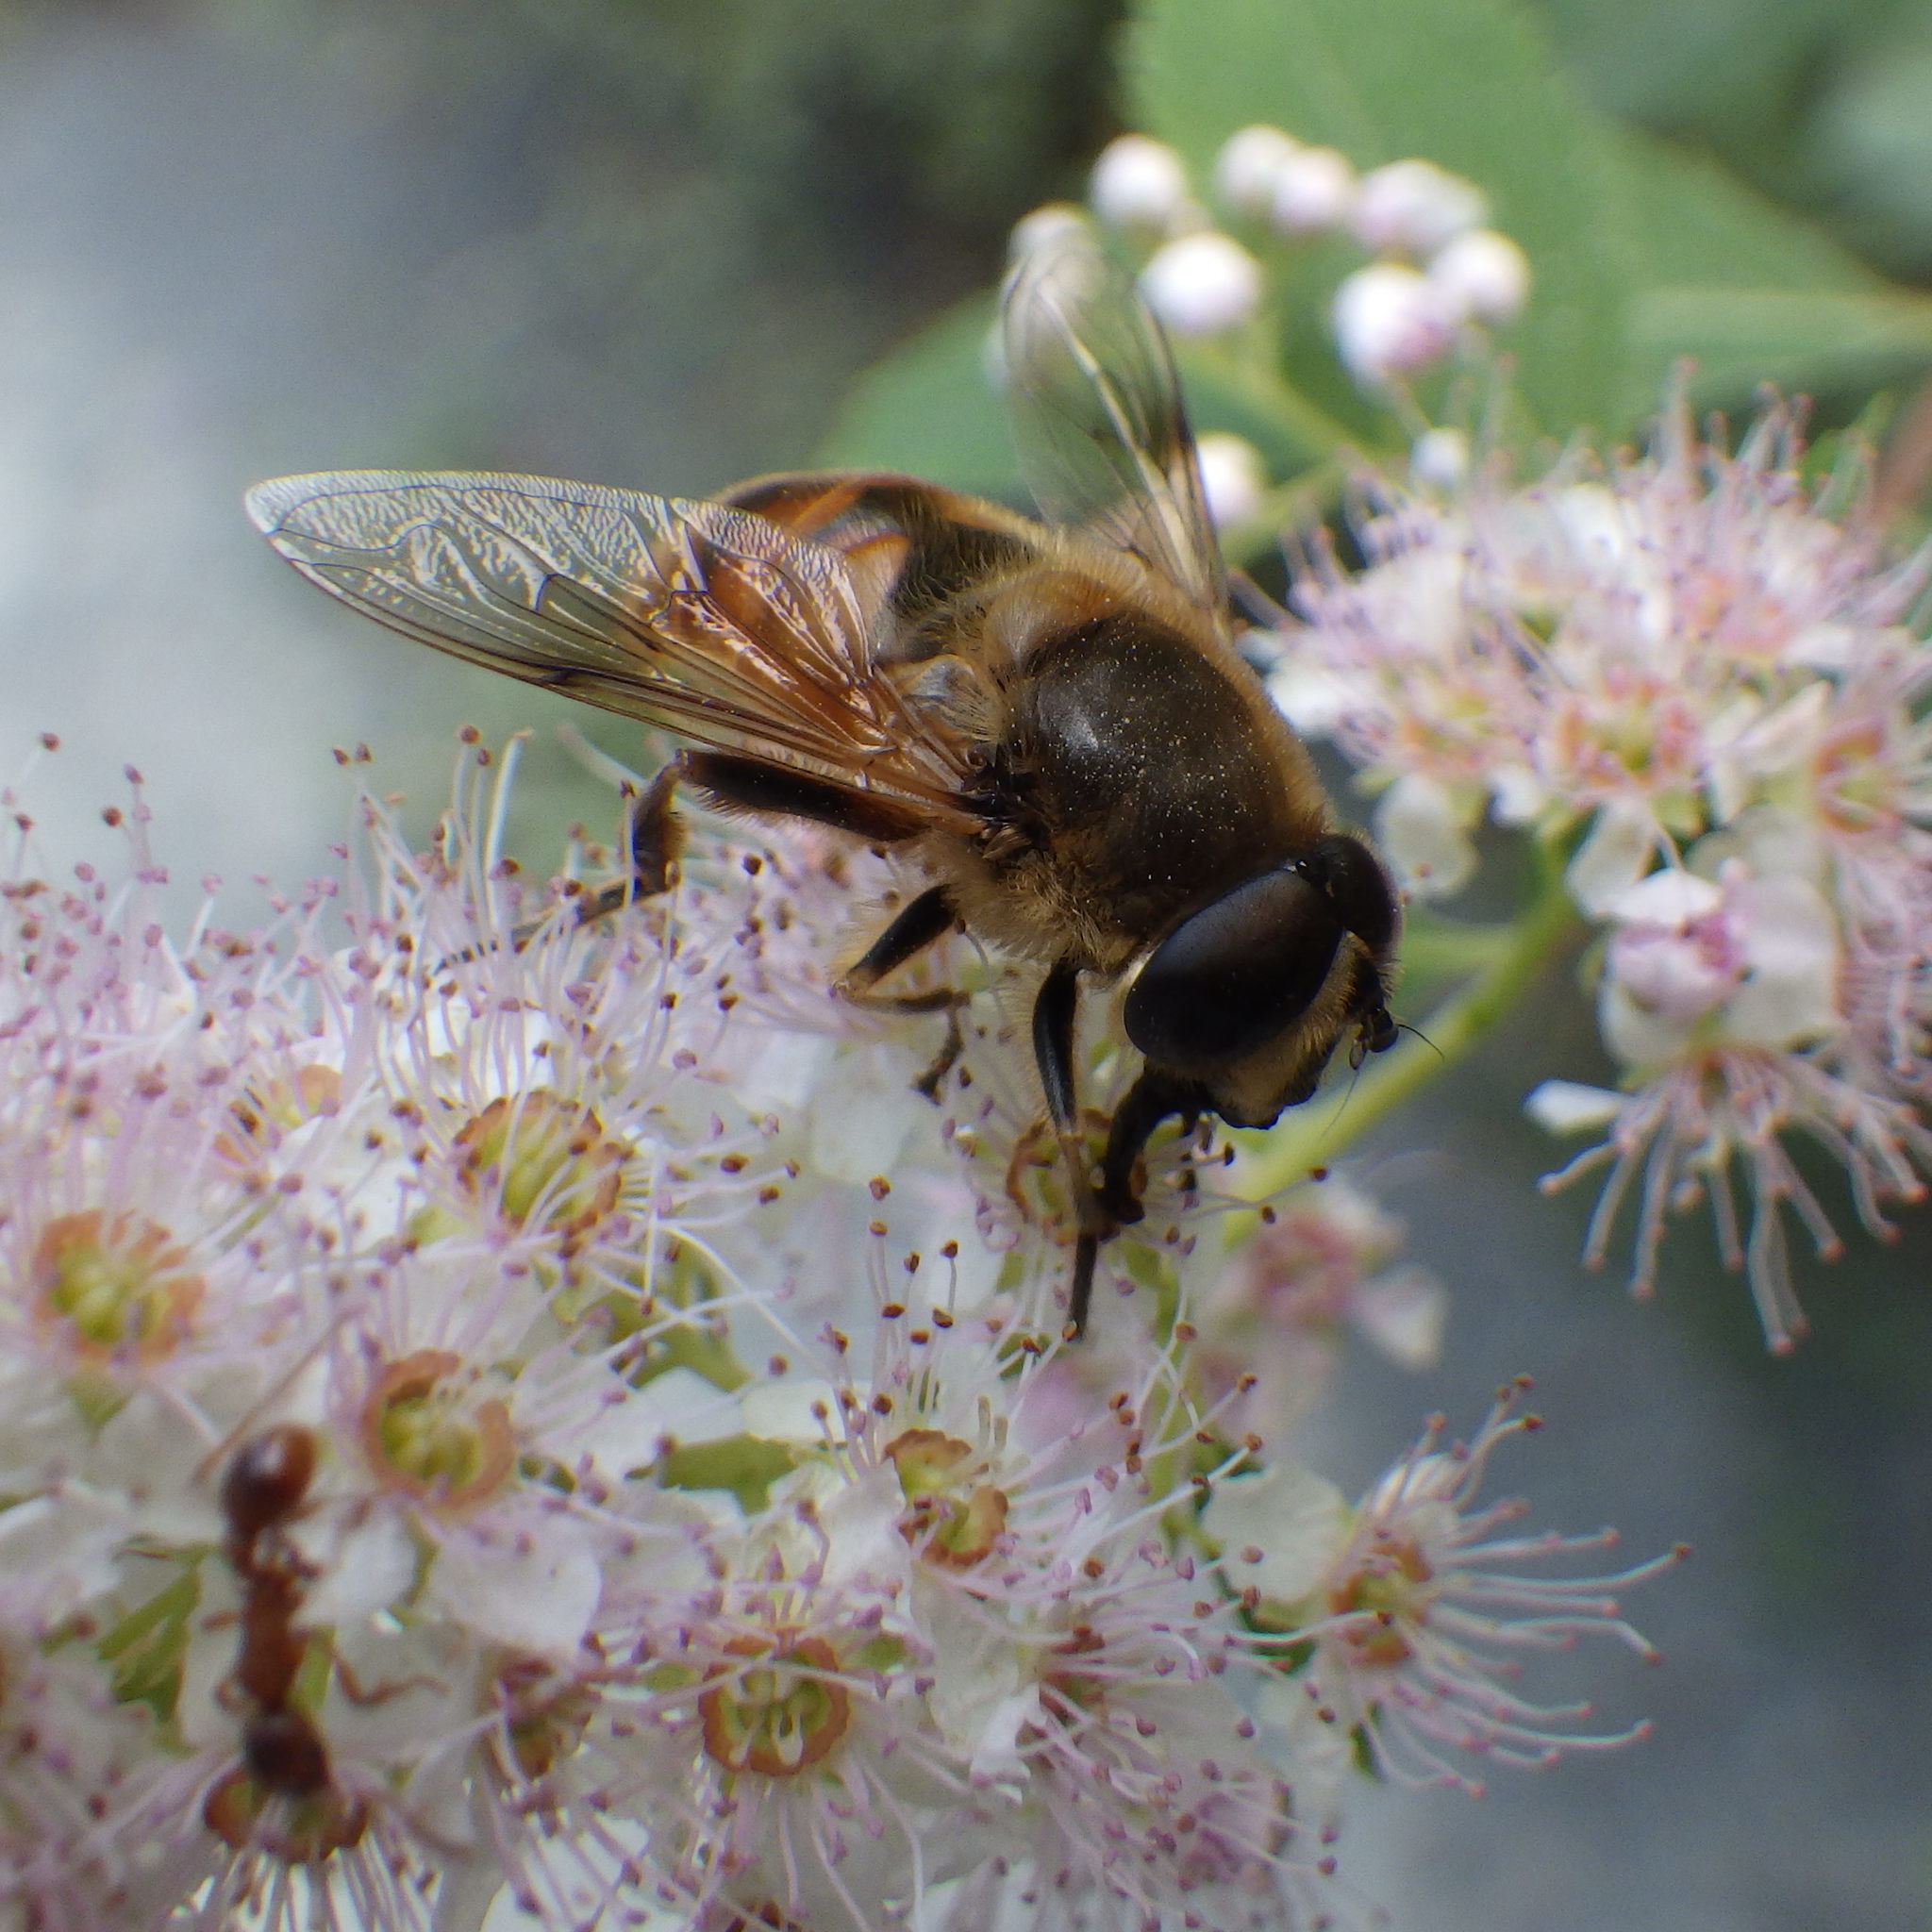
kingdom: Animalia
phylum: Arthropoda
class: Insecta
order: Diptera
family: Syrphidae
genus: Eristalis
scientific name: Eristalis tenax
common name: Drone fly
